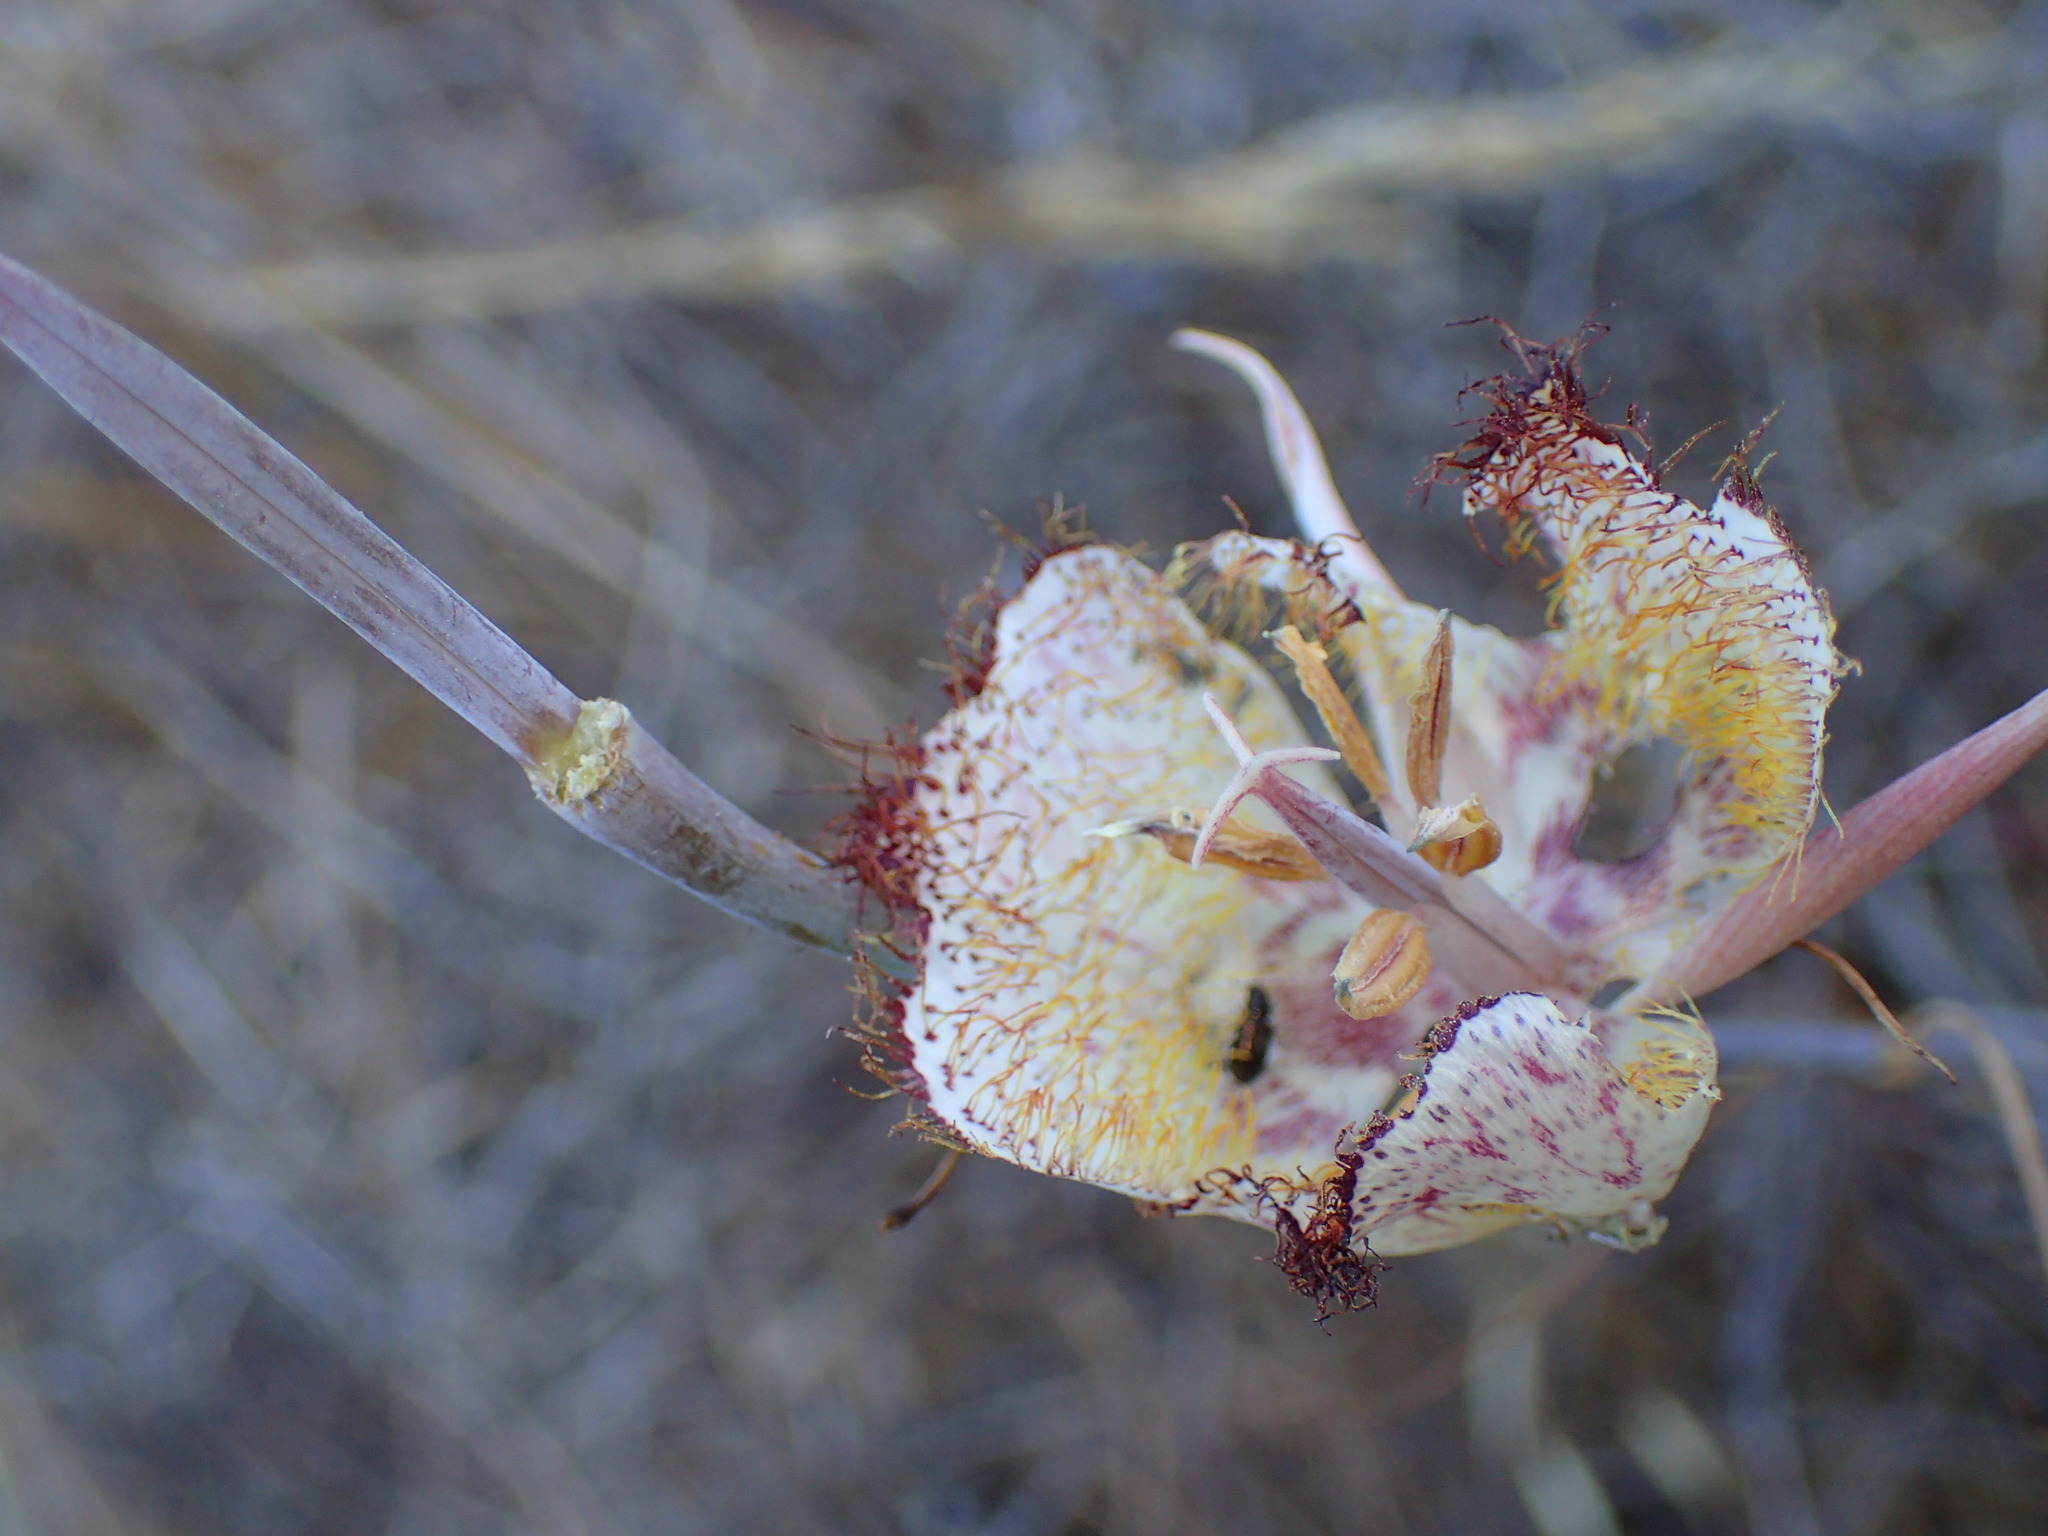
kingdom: Plantae
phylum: Tracheophyta
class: Liliopsida
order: Liliales
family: Liliaceae
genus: Calochortus
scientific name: Calochortus fimbriatus
